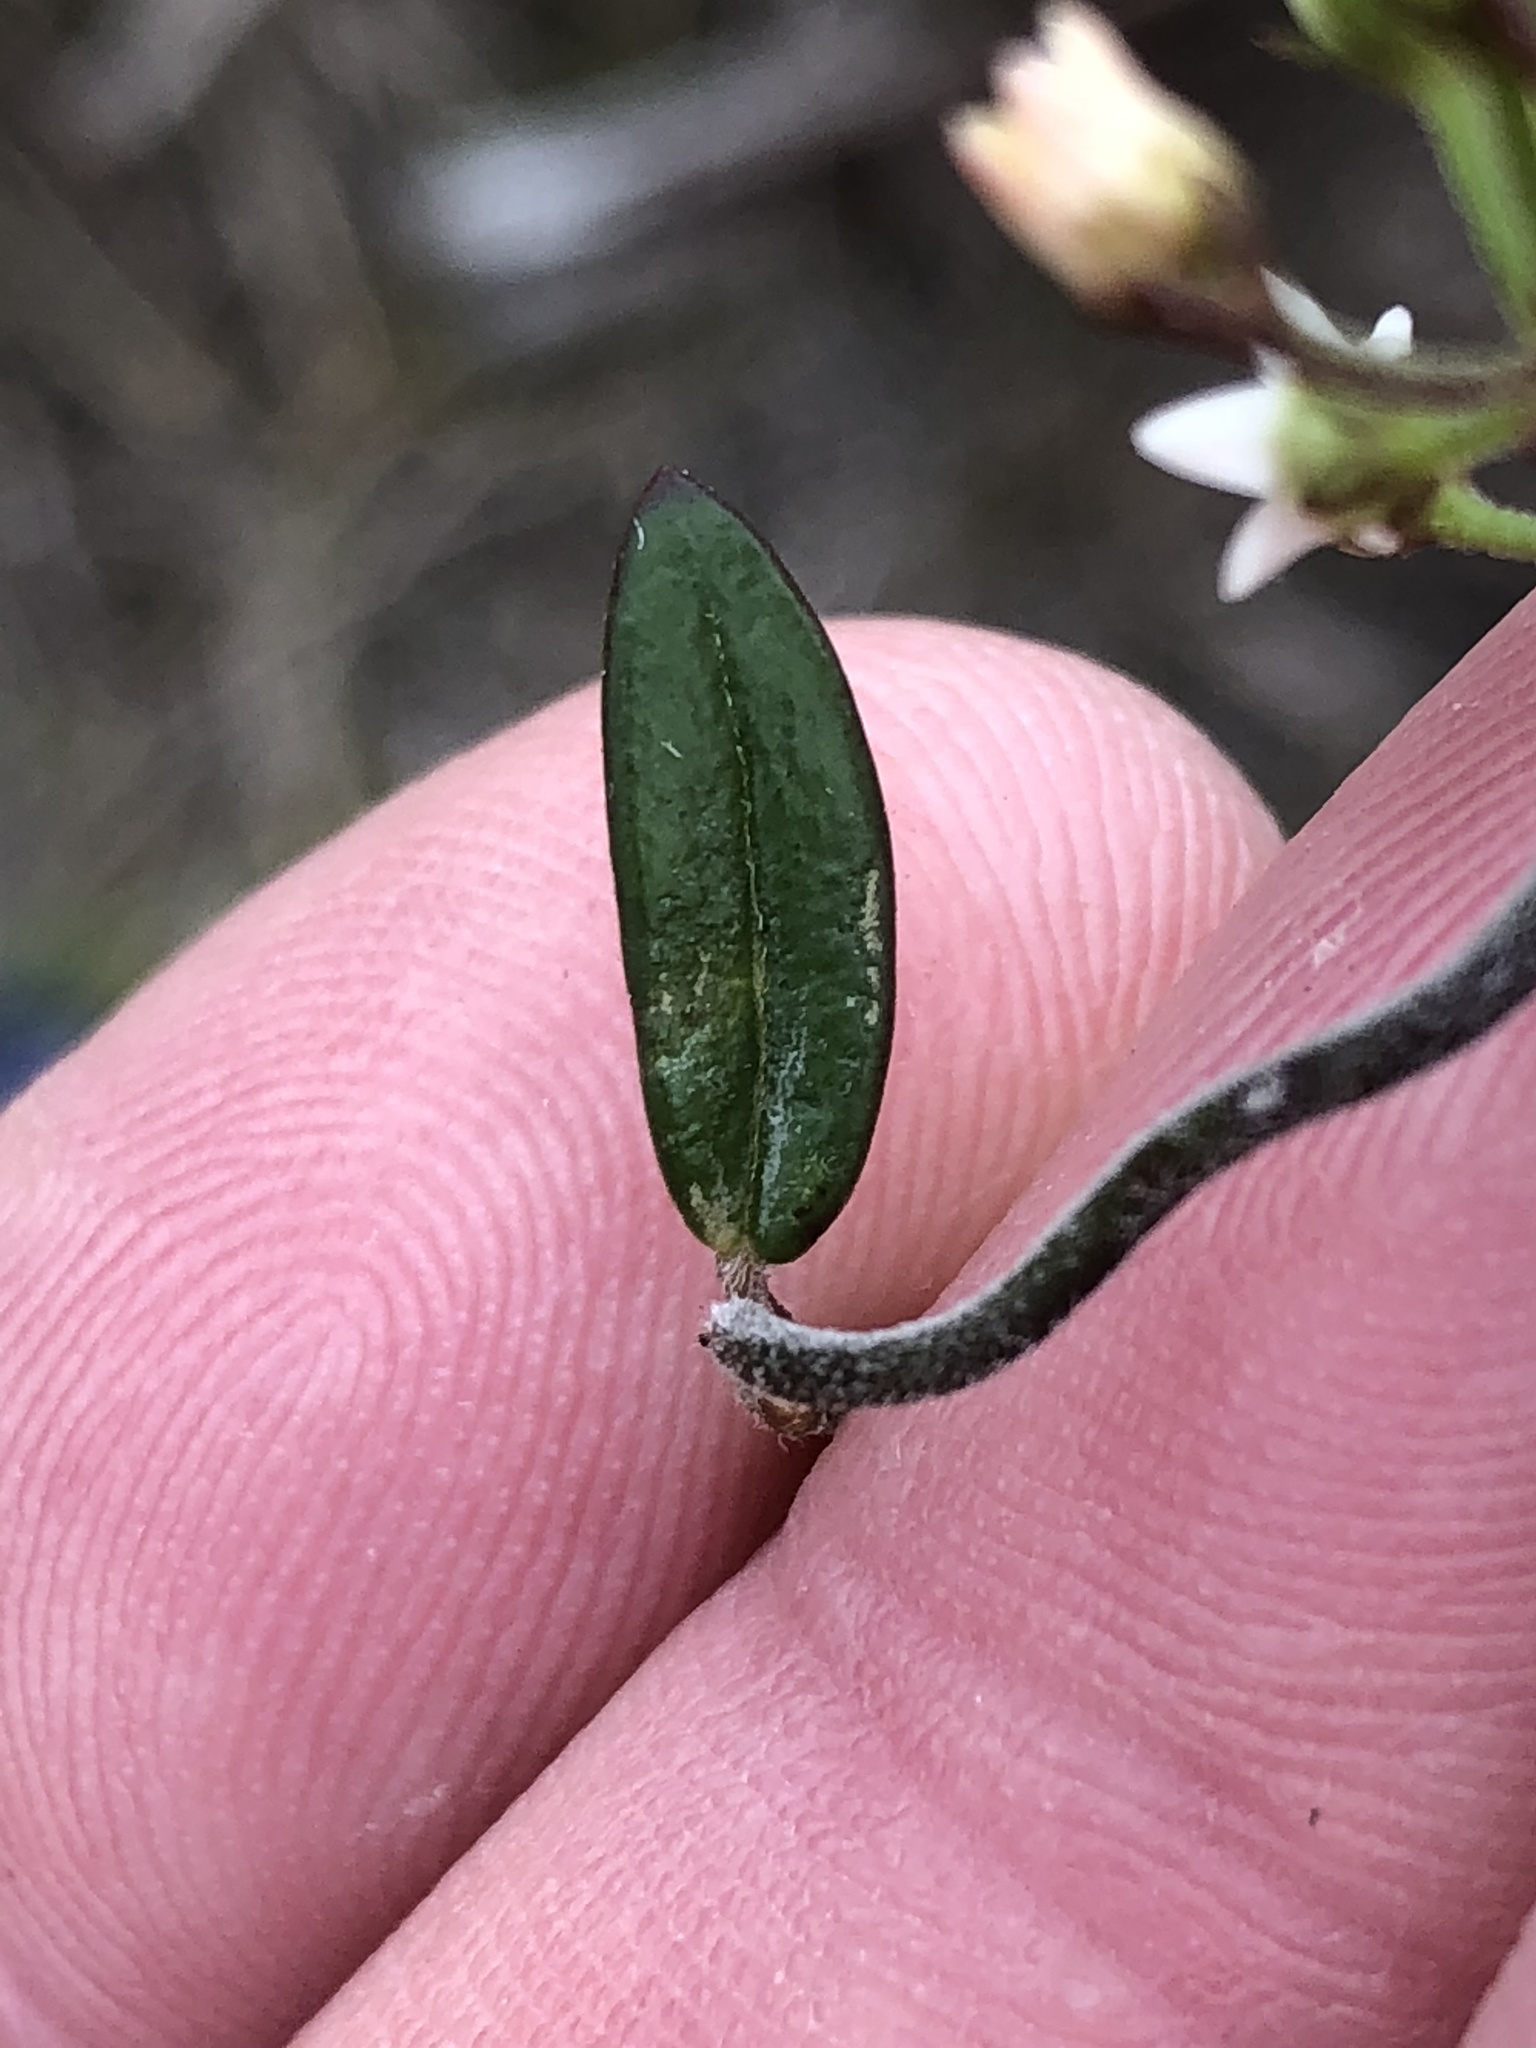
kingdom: Plantae
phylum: Tracheophyta
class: Magnoliopsida
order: Gentianales
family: Apocynaceae
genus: Astephanus
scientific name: Astephanus triflorus
